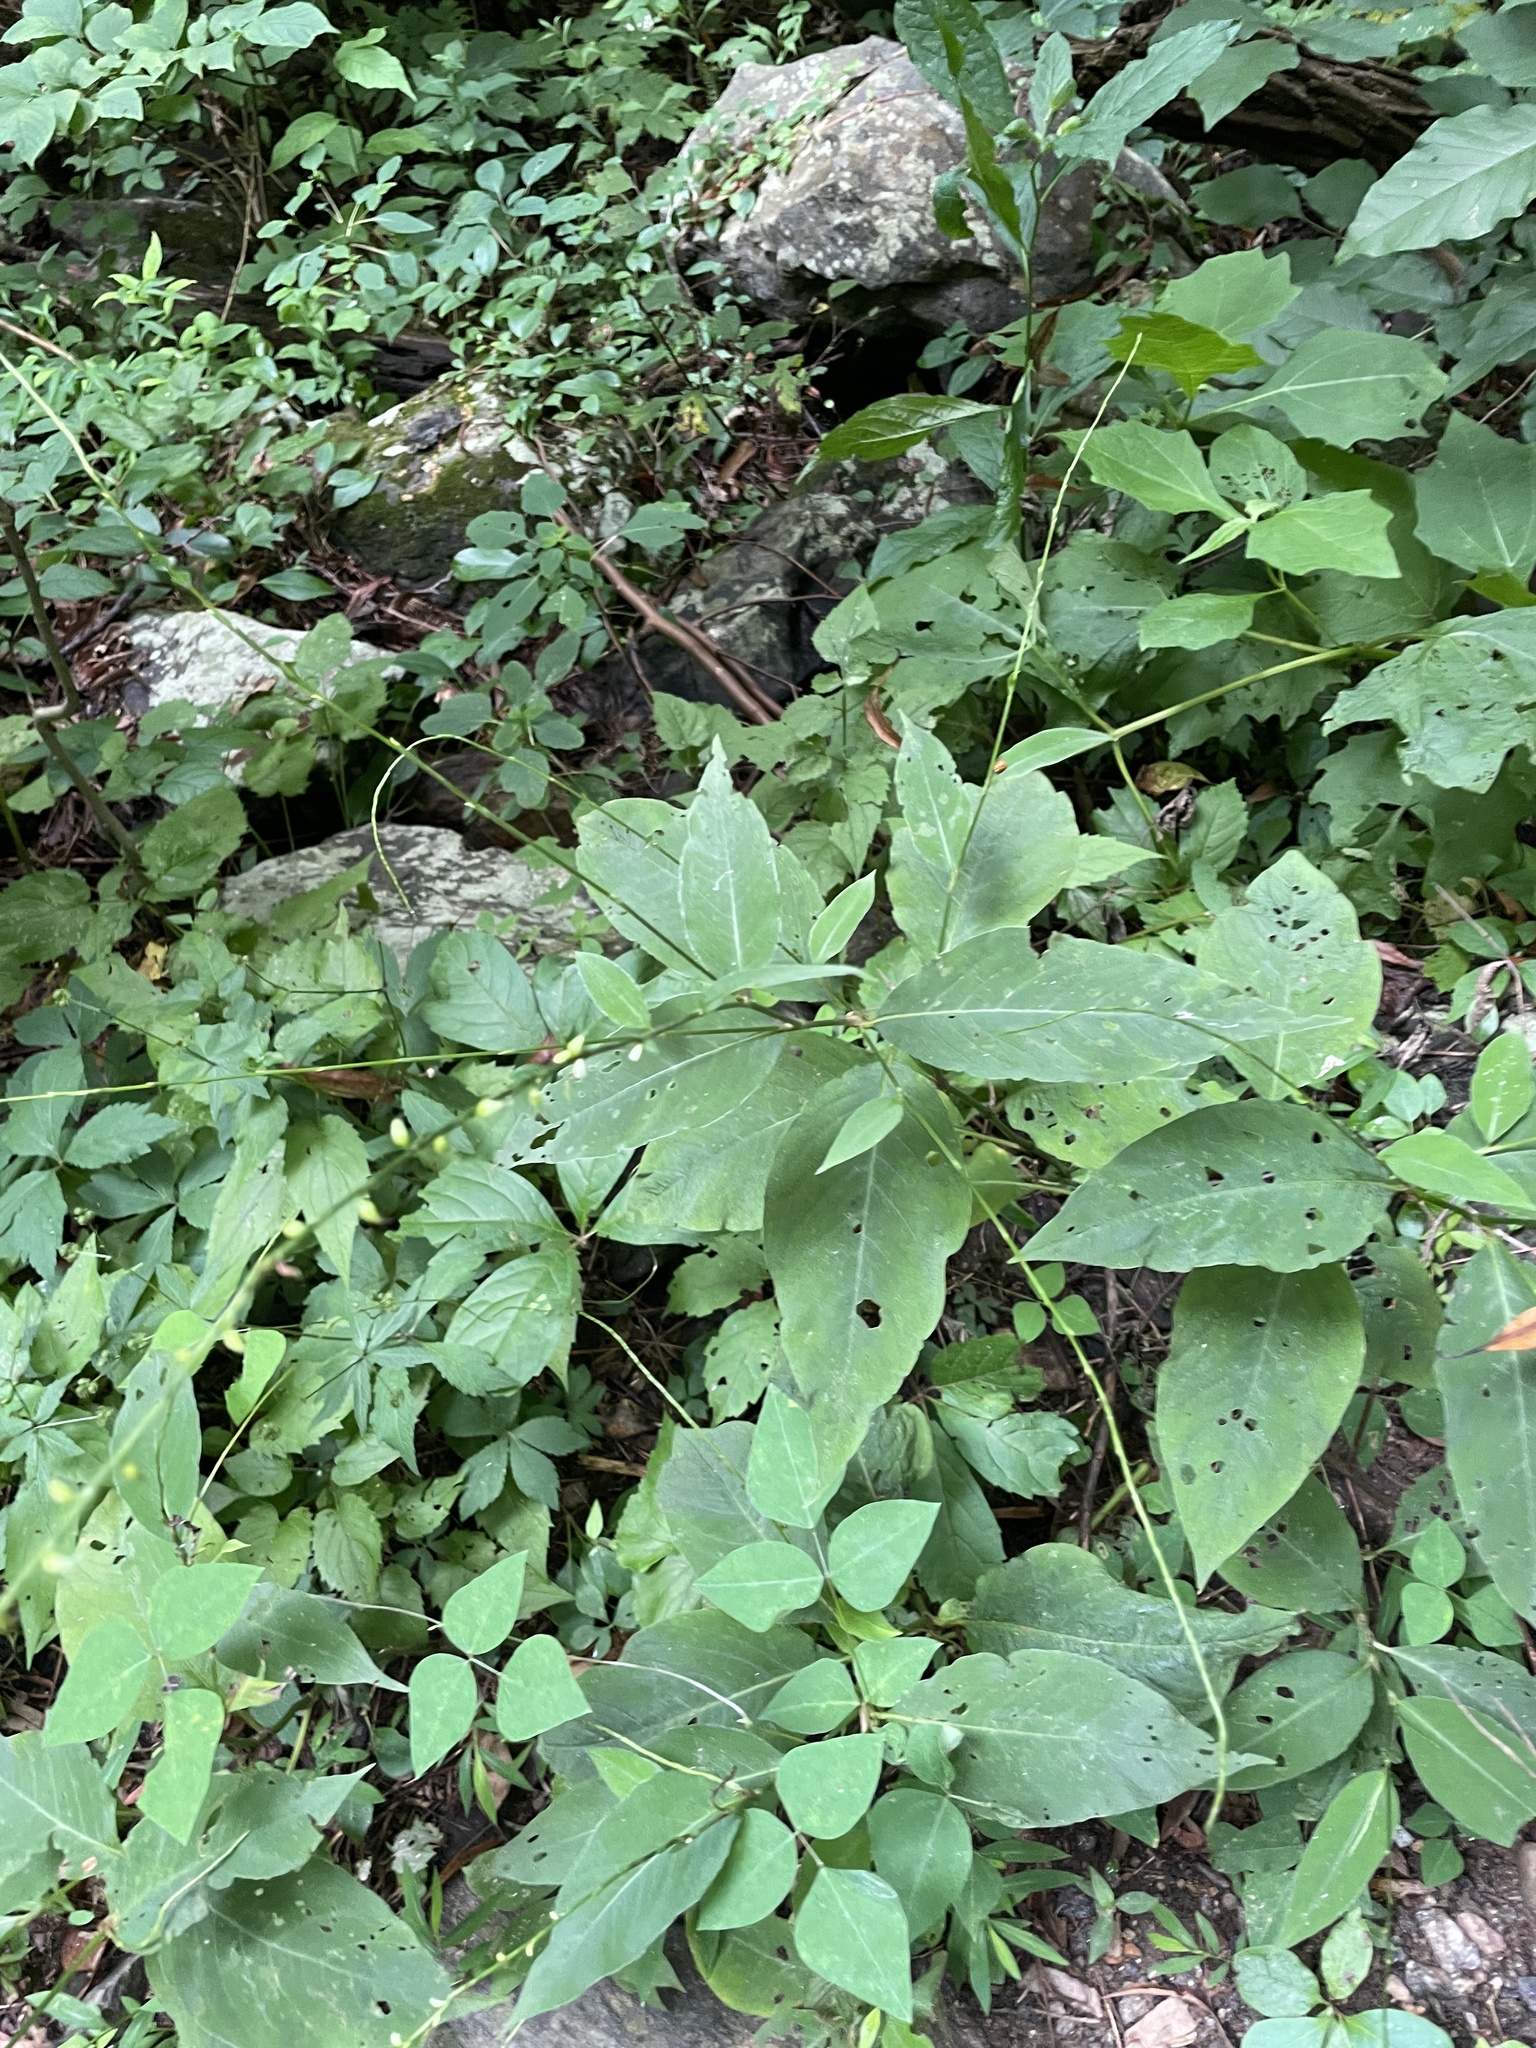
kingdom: Plantae
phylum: Tracheophyta
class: Magnoliopsida
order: Caryophyllales
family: Polygonaceae
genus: Persicaria
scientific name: Persicaria virginiana
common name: Jumpseed
